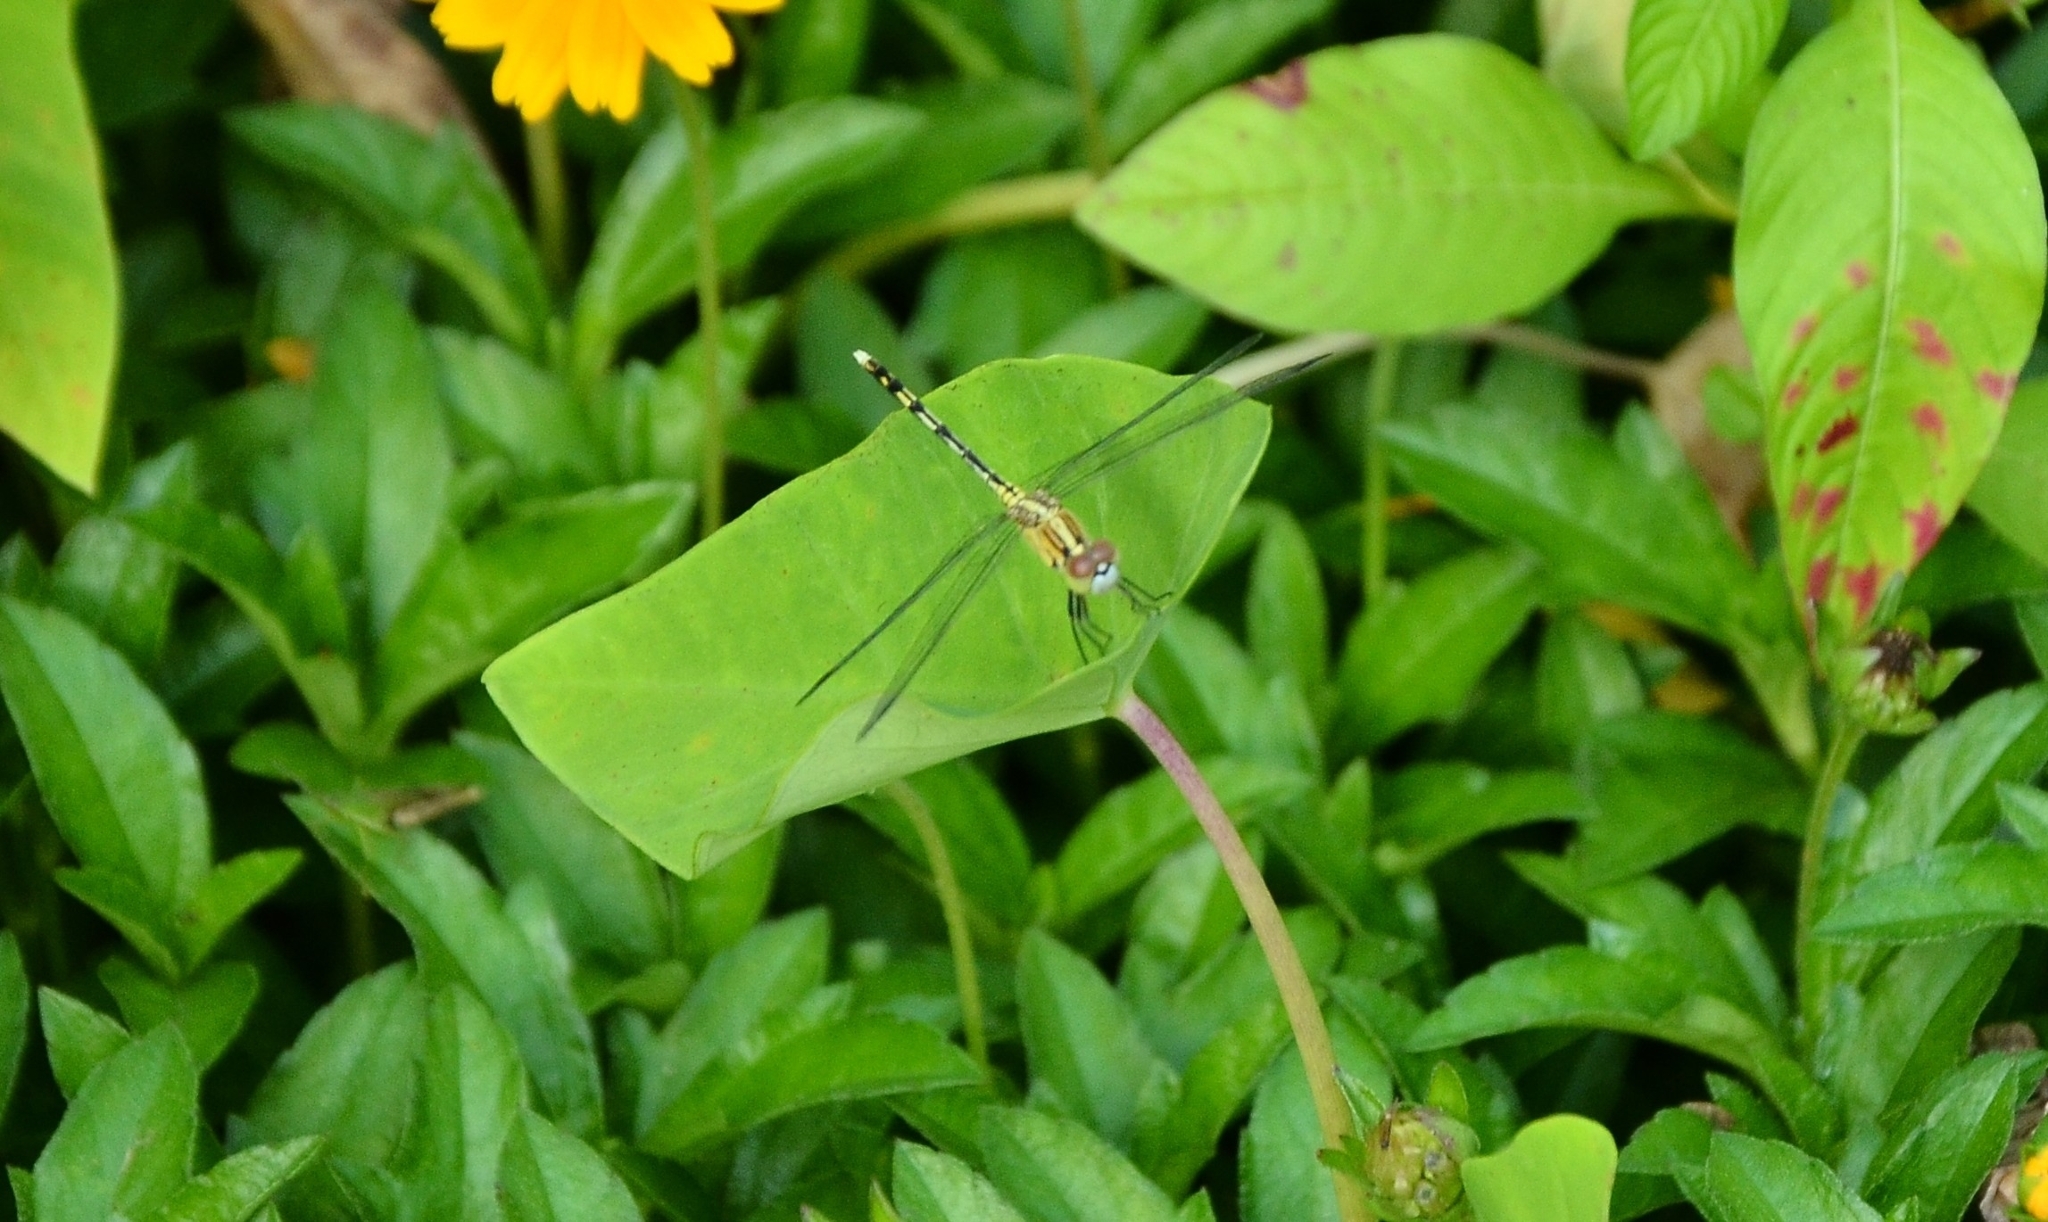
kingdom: Animalia
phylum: Arthropoda
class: Insecta
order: Odonata
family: Libellulidae
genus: Diplacodes
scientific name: Diplacodes trivialis
